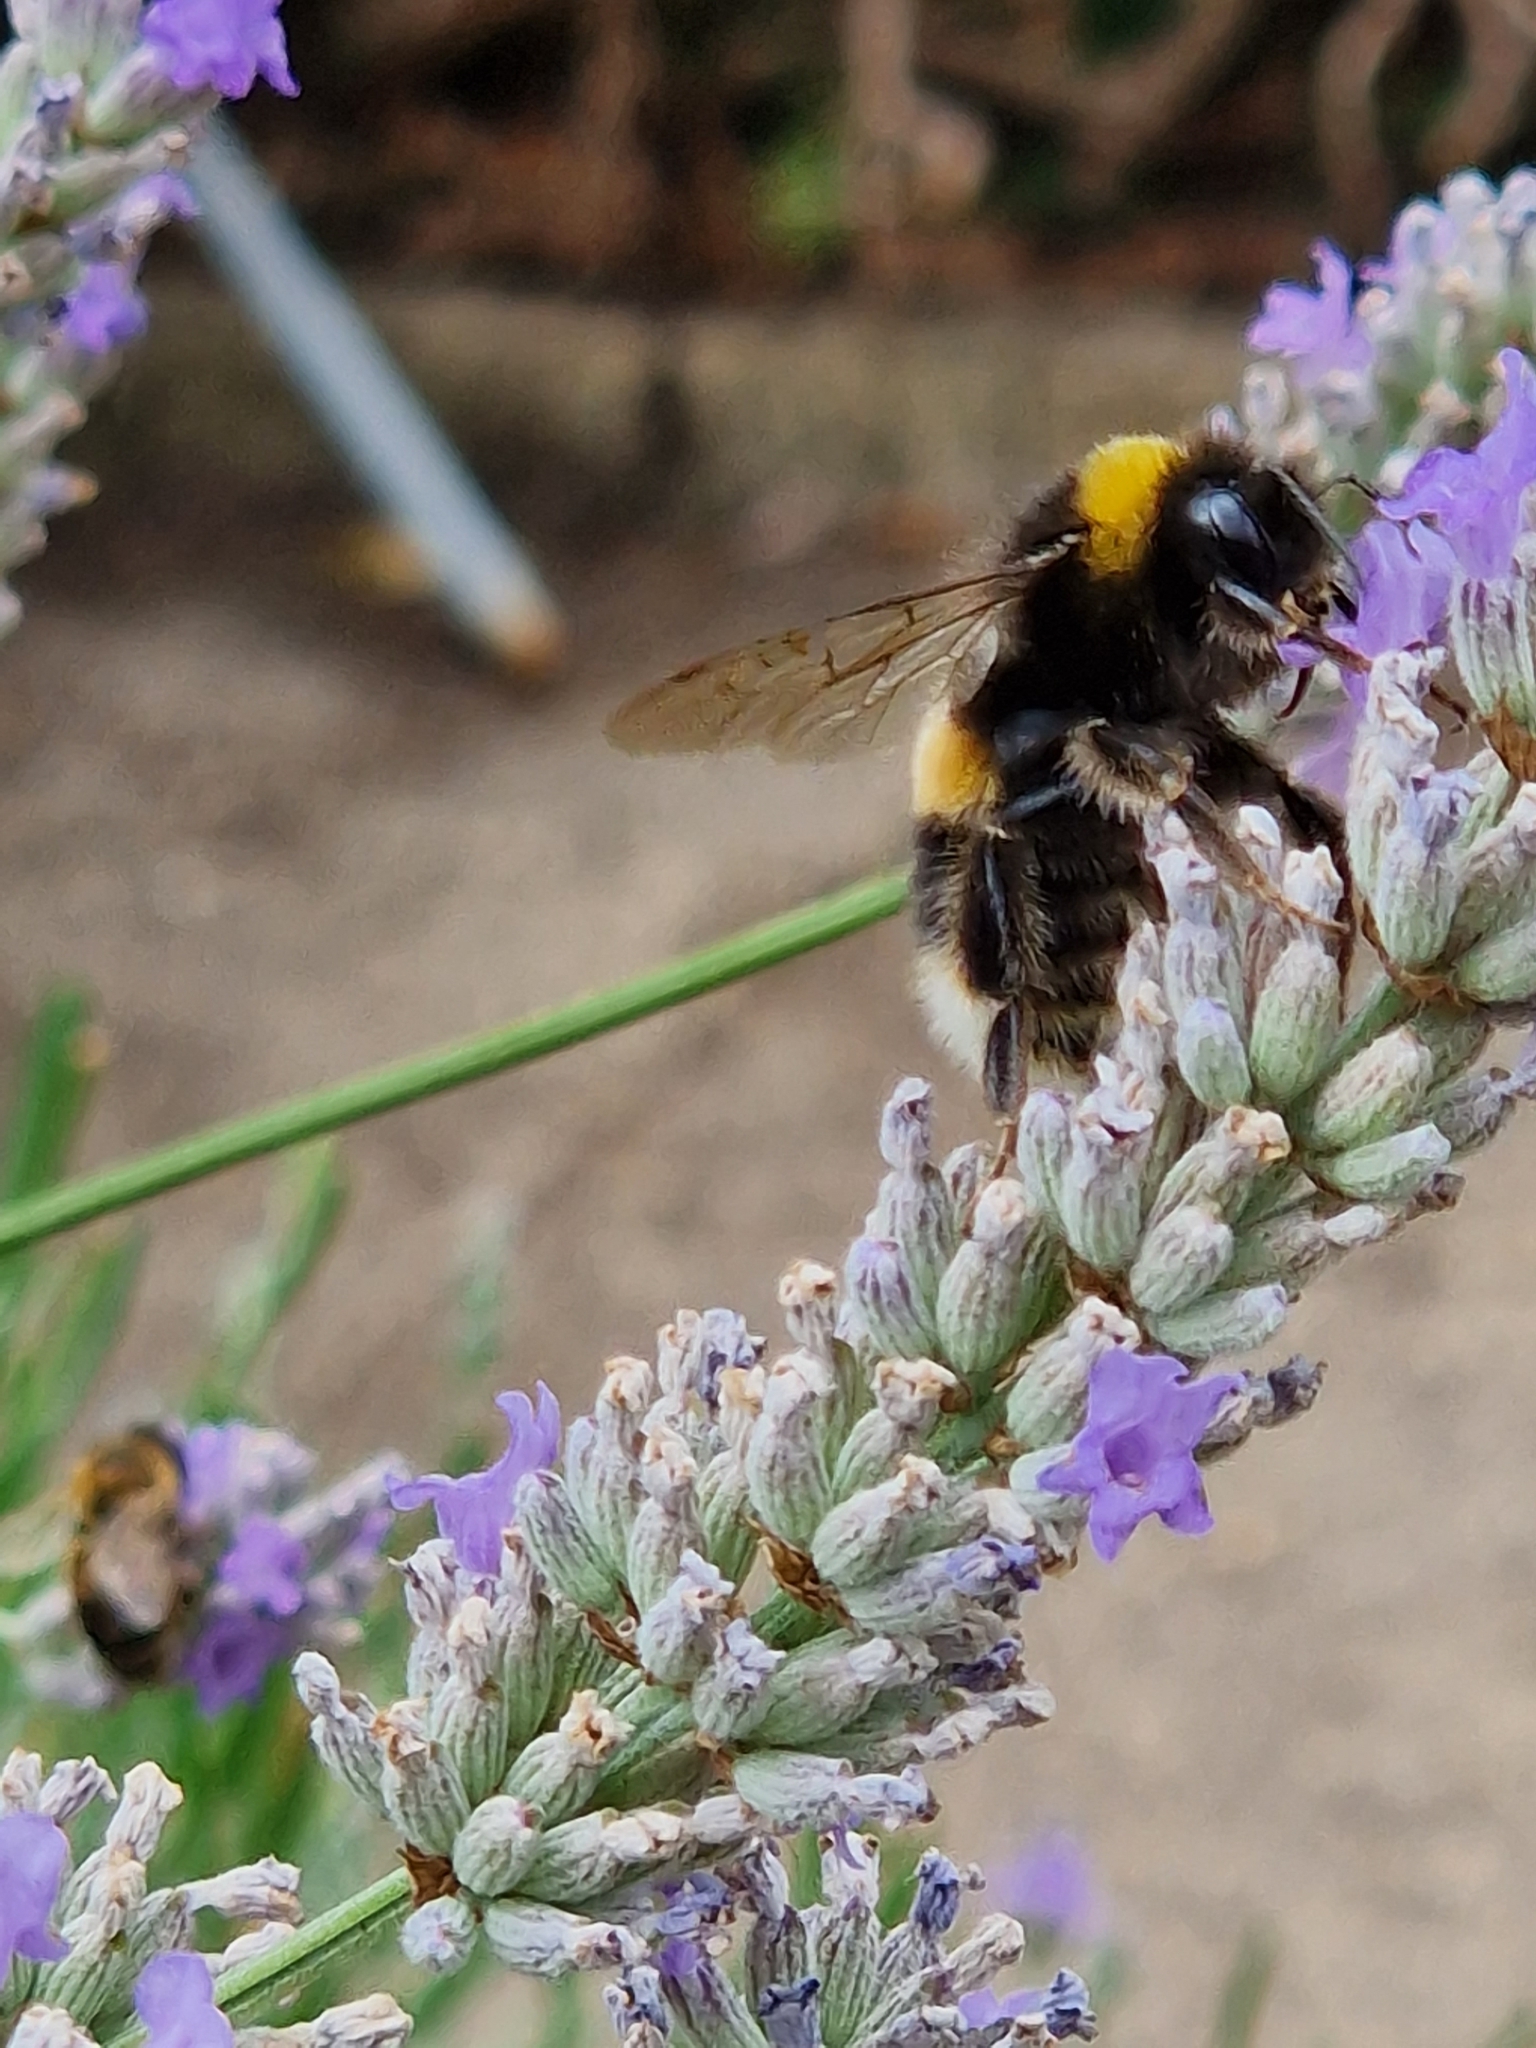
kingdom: Animalia
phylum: Arthropoda
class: Insecta
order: Hymenoptera
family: Apidae
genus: Bombus
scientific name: Bombus terrestris
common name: Buff-tailed bumblebee
